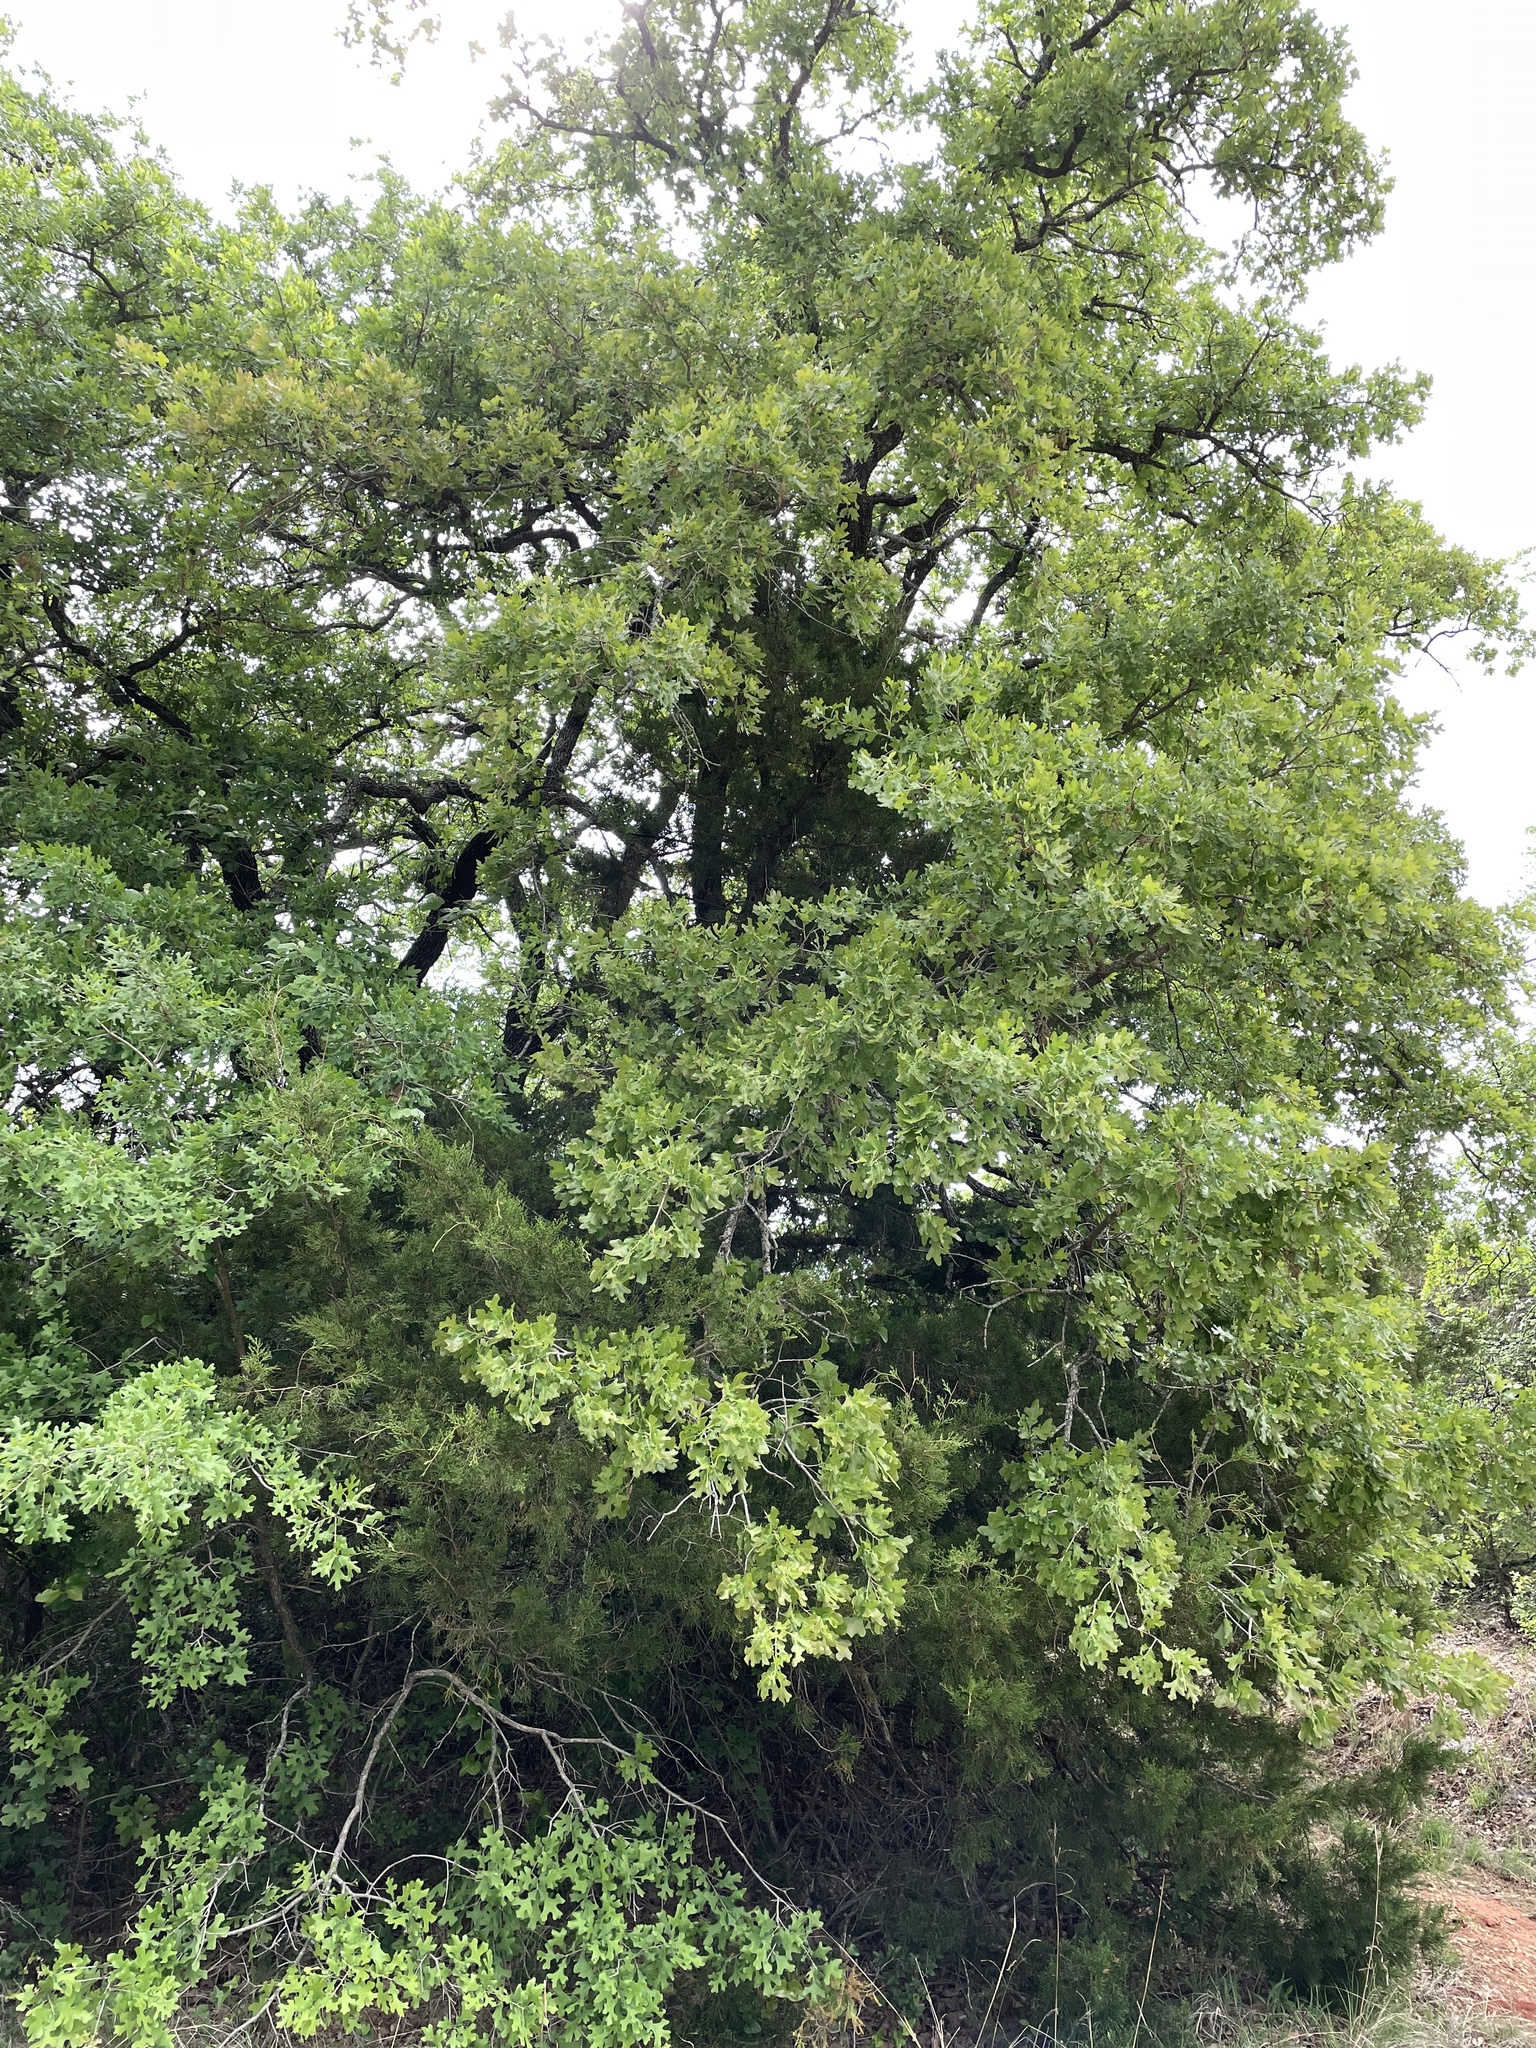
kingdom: Plantae
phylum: Tracheophyta
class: Magnoliopsida
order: Fagales
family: Fagaceae
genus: Quercus
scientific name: Quercus stellata
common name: Post oak
